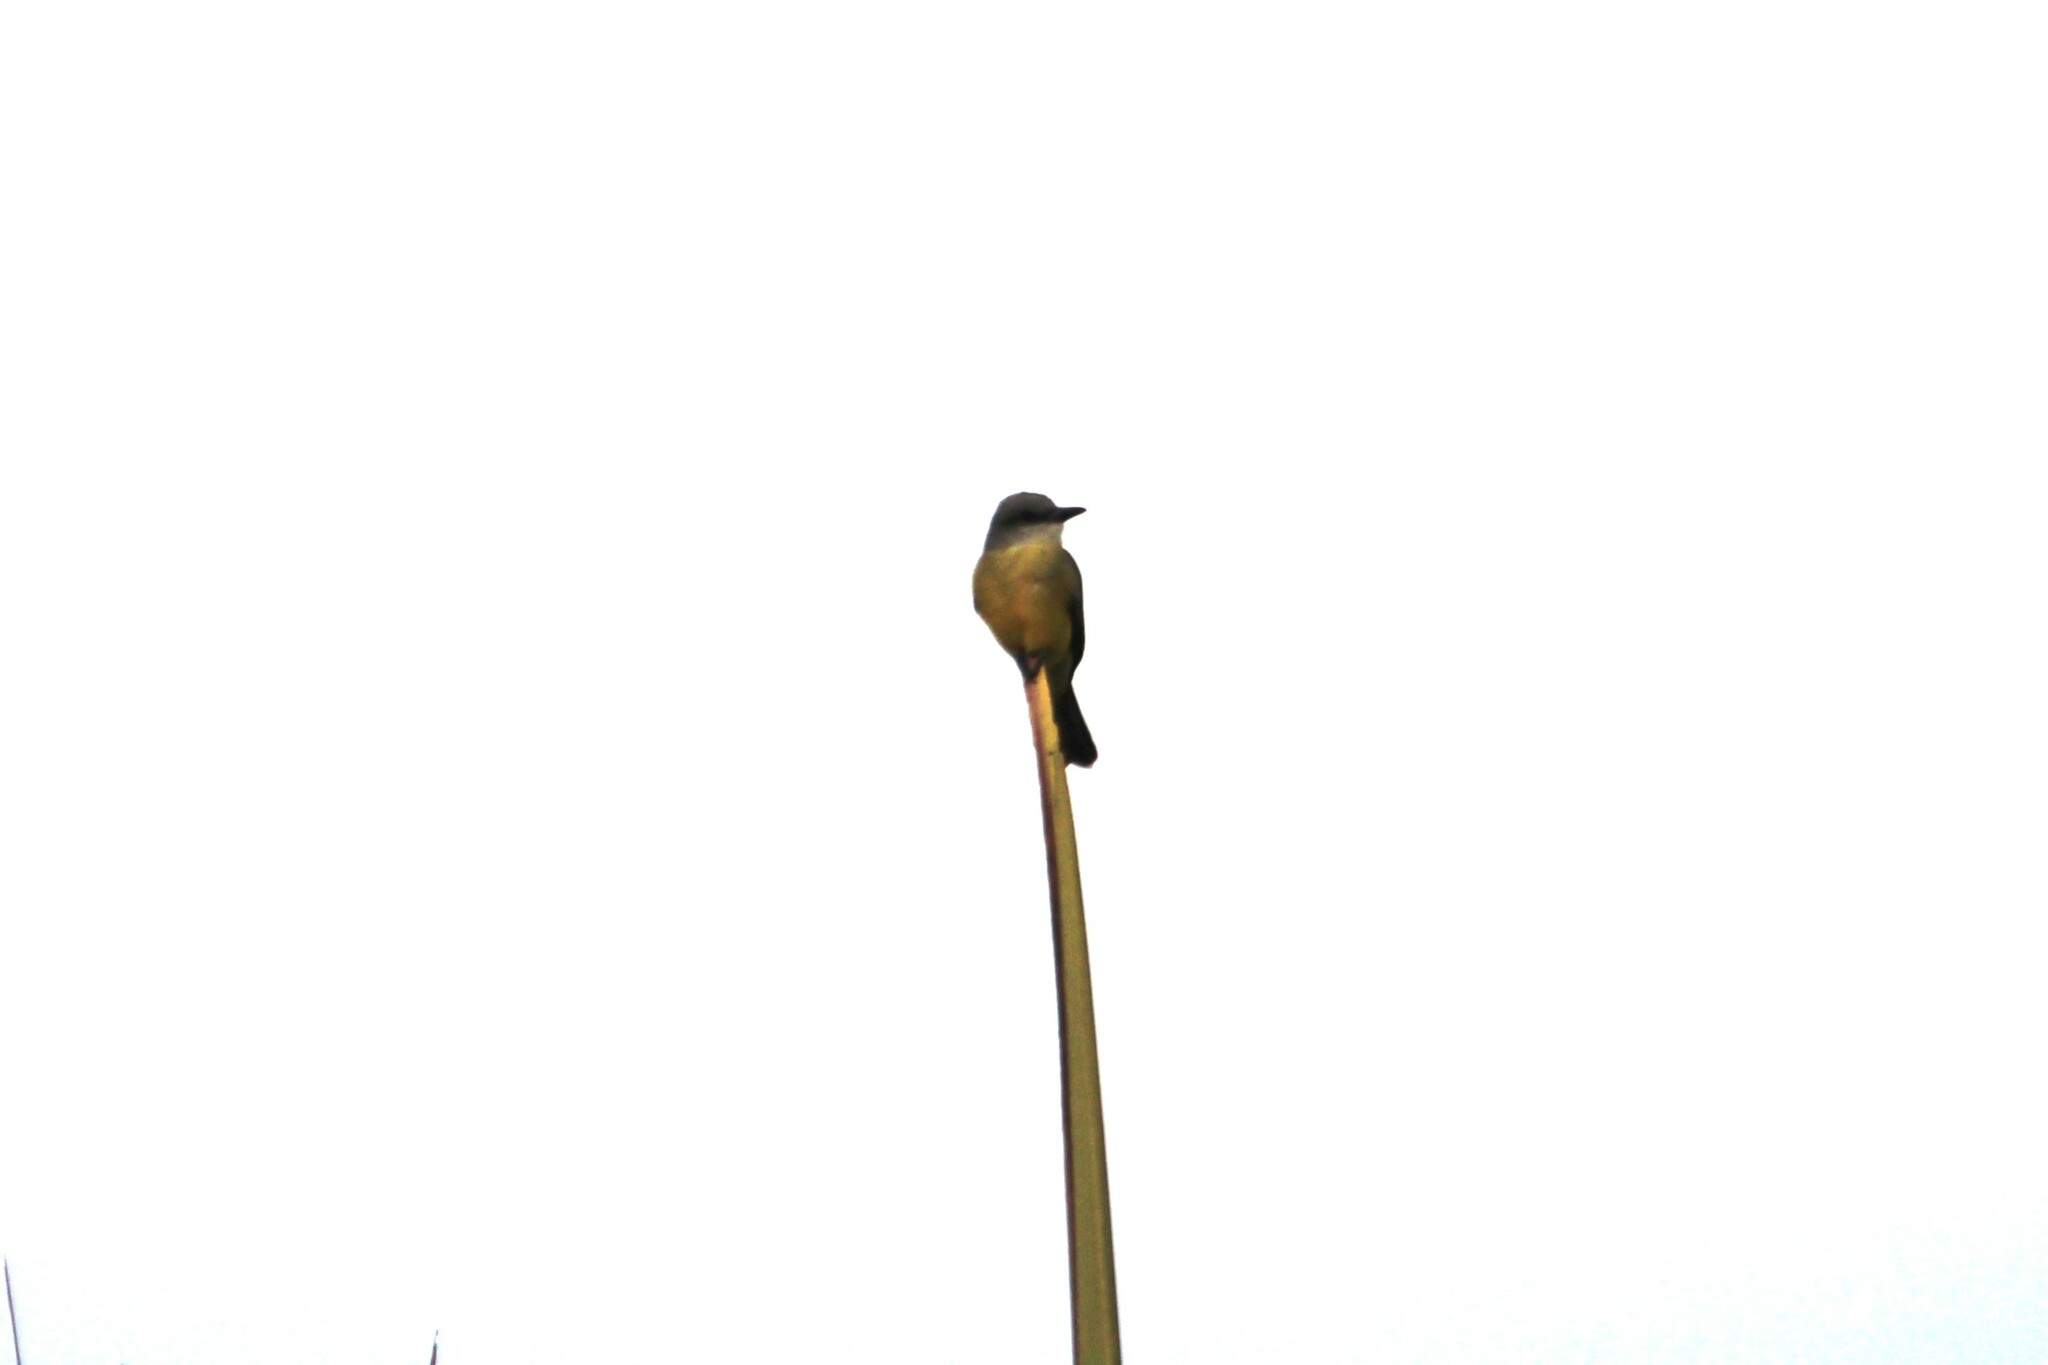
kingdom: Animalia
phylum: Chordata
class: Aves
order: Passeriformes
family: Tyrannidae
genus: Tyrannus
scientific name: Tyrannus melancholicus
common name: Tropical kingbird
